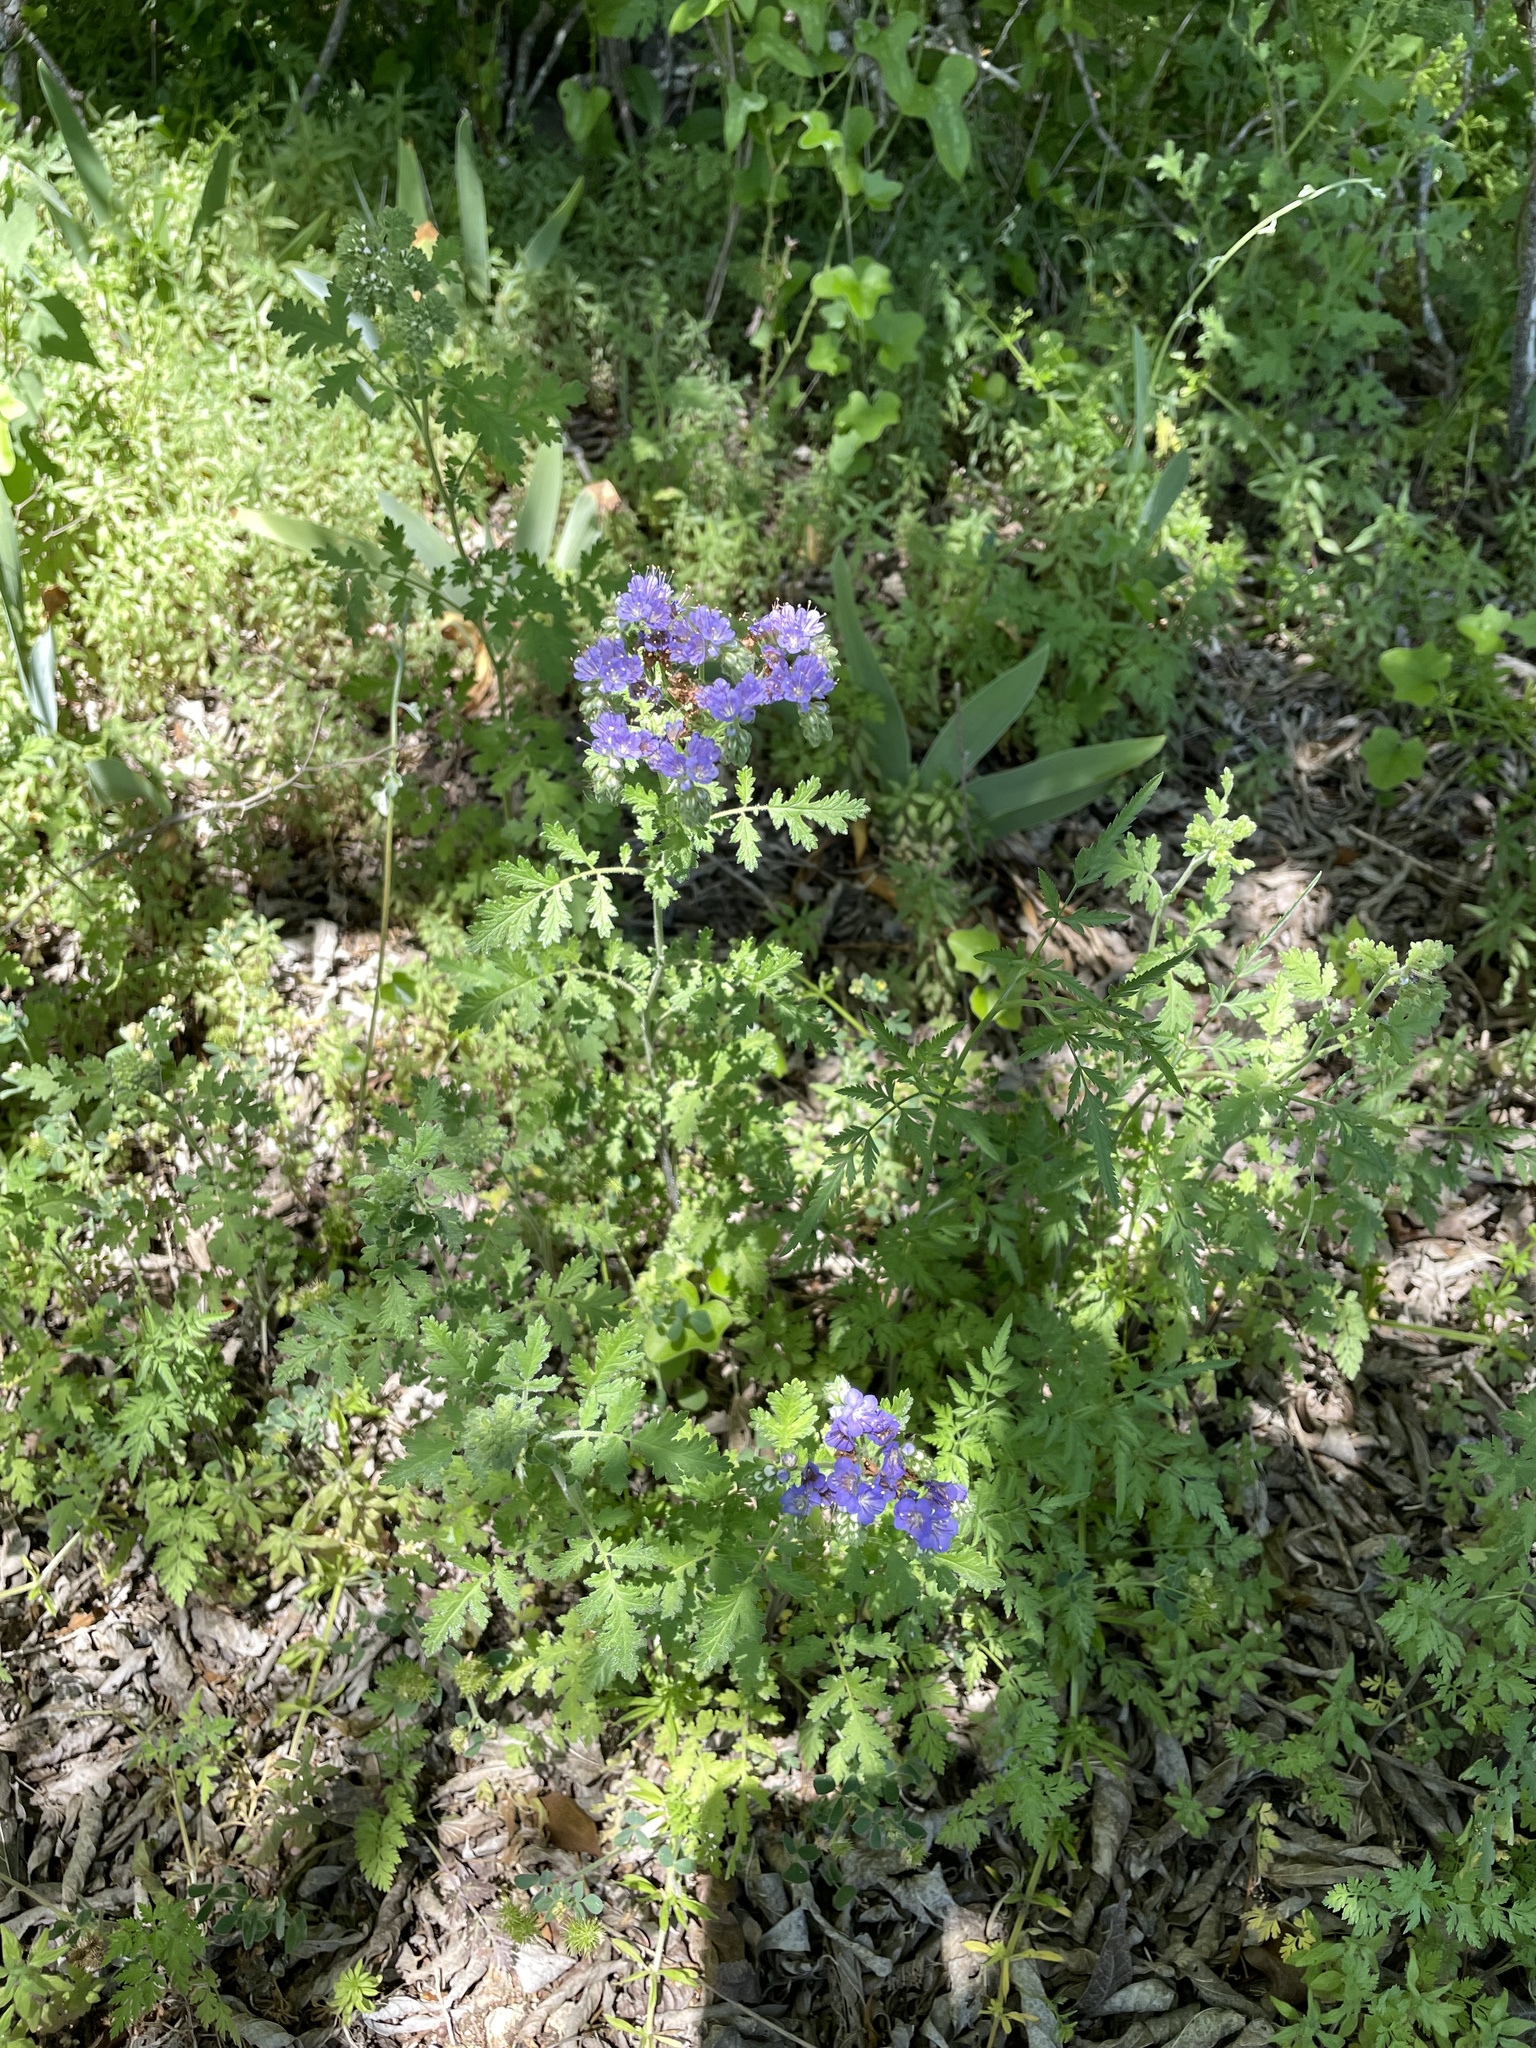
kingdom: Plantae
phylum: Tracheophyta
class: Magnoliopsida
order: Boraginales
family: Hydrophyllaceae
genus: Phacelia
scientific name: Phacelia congesta
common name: Blue curls
